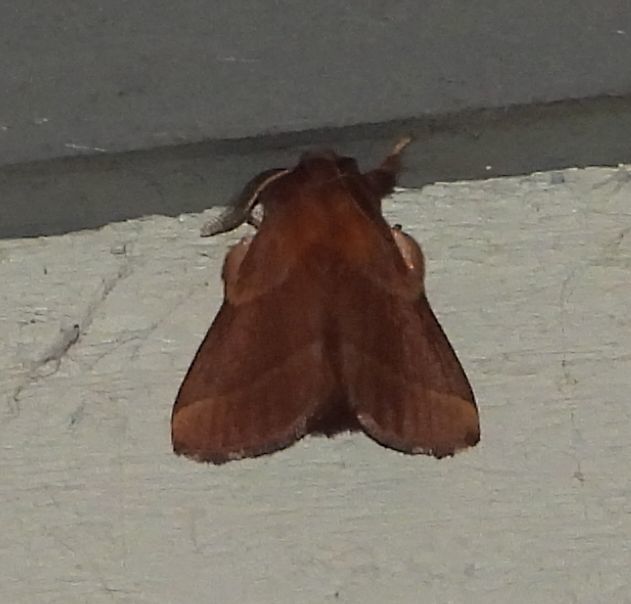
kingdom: Animalia
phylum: Arthropoda
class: Insecta
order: Lepidoptera
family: Lasiocampidae
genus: Malacosoma
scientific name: Malacosoma disstria
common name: Forest tent caterpillar
